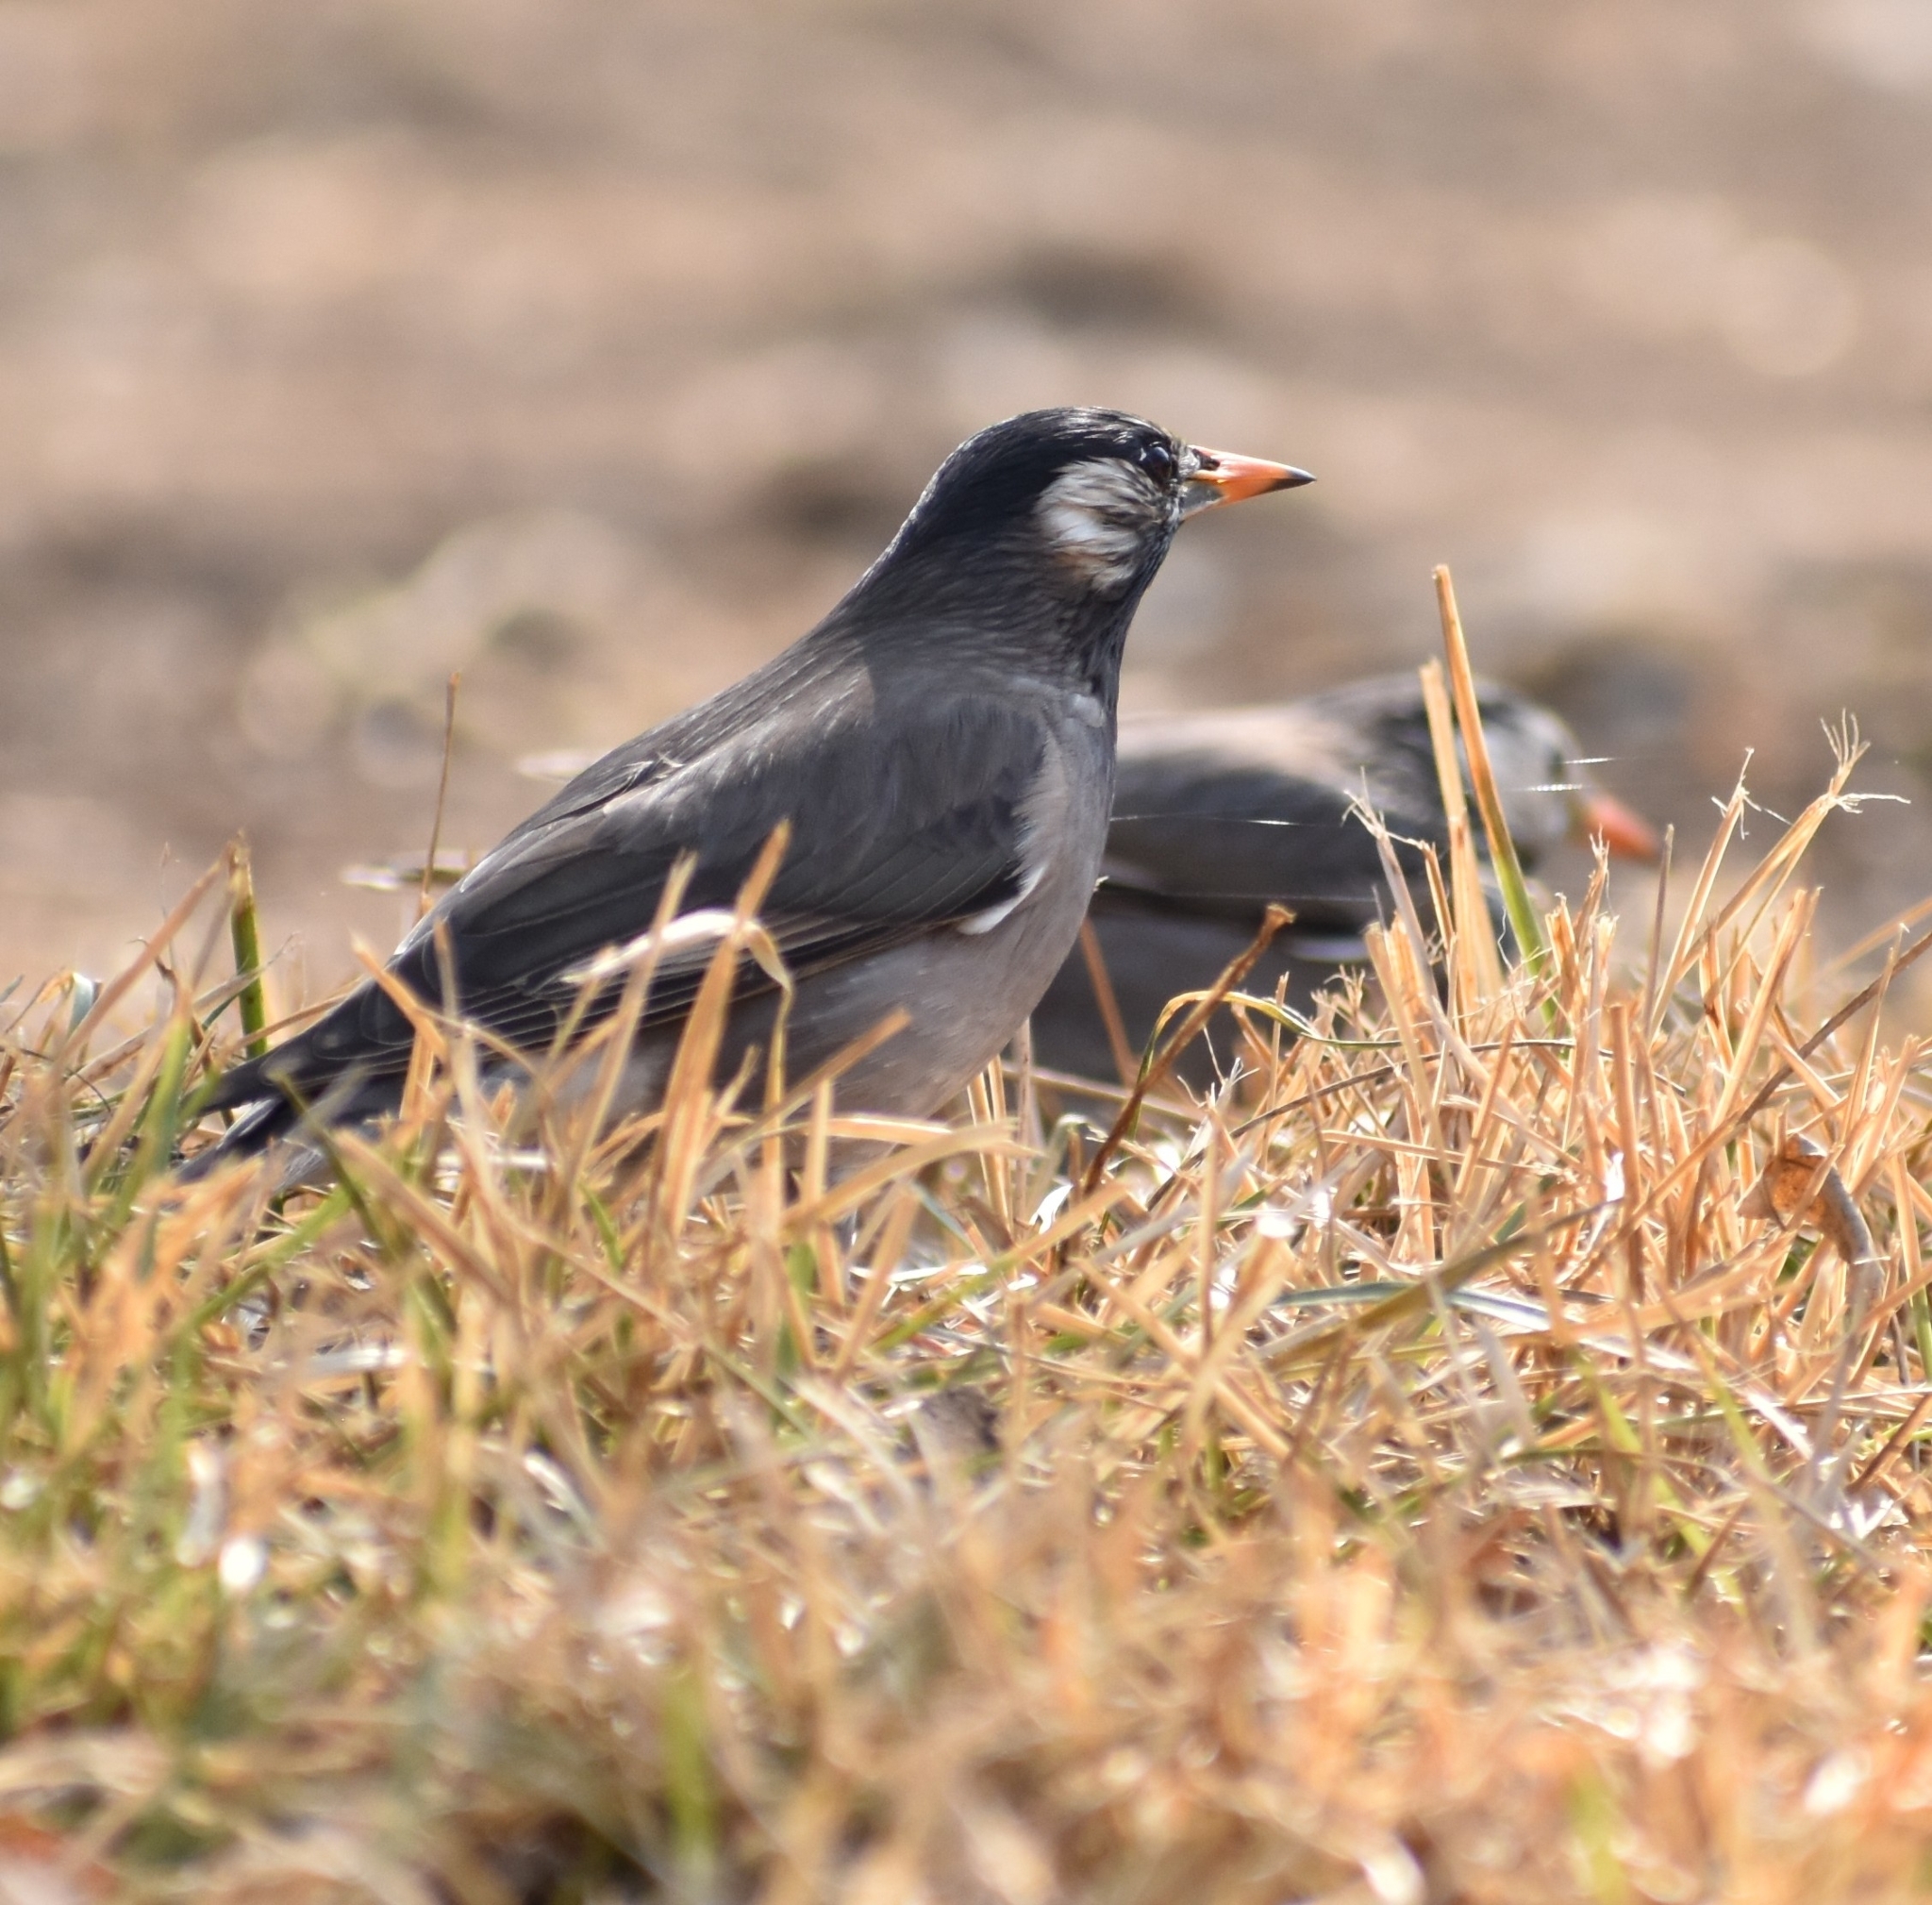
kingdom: Animalia
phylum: Chordata
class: Aves
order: Passeriformes
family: Sturnidae
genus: Spodiopsar
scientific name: Spodiopsar cineraceus
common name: White-cheeked starling
